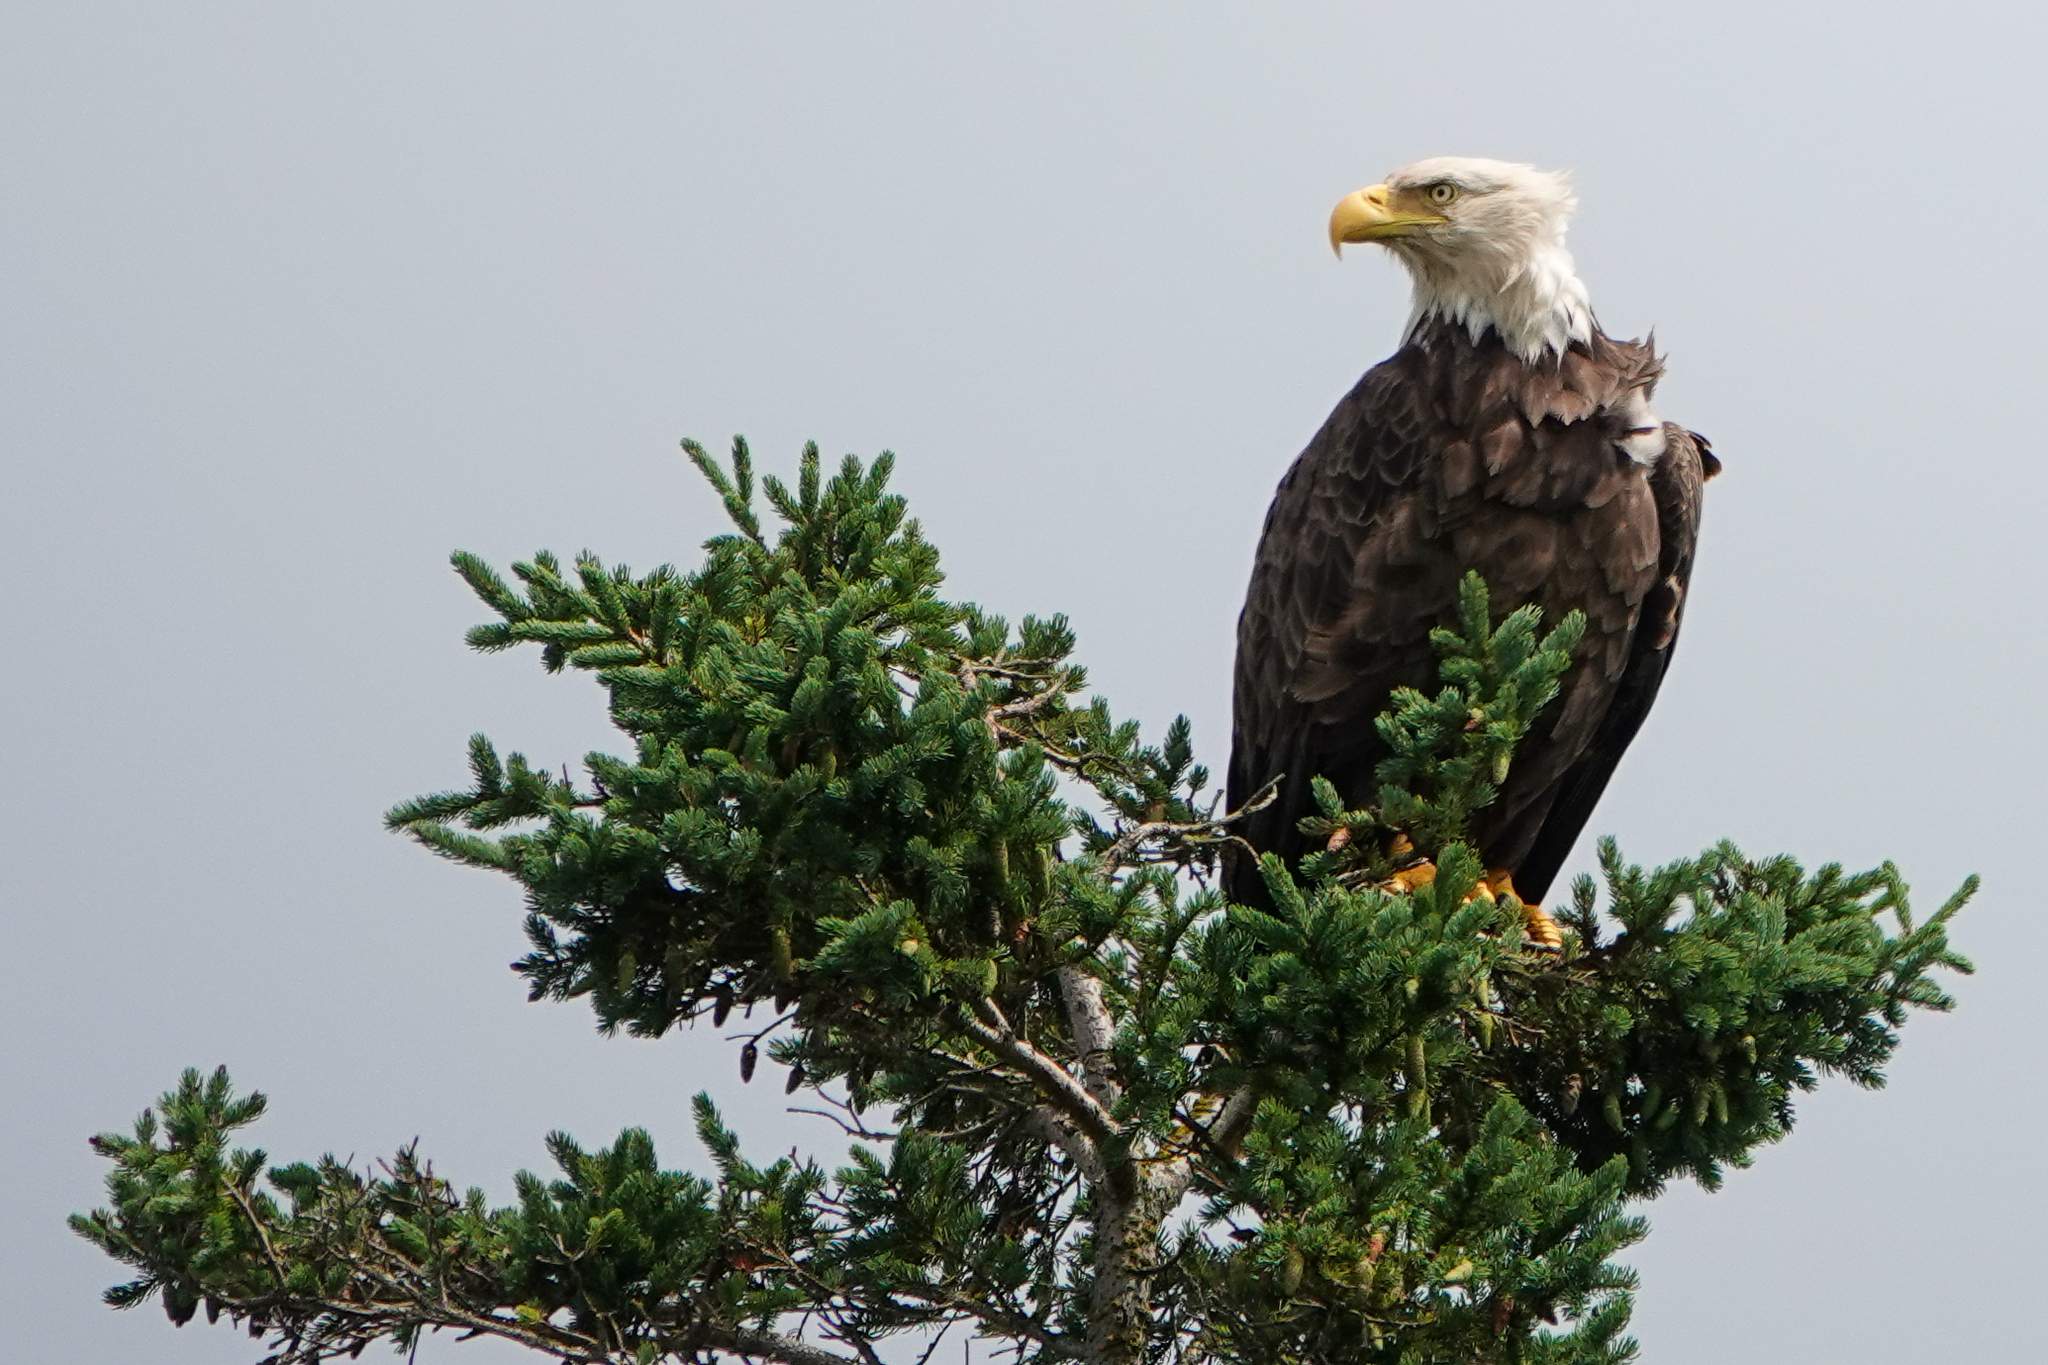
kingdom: Animalia
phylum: Chordata
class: Aves
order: Accipitriformes
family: Accipitridae
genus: Haliaeetus
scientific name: Haliaeetus leucocephalus
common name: Bald eagle
